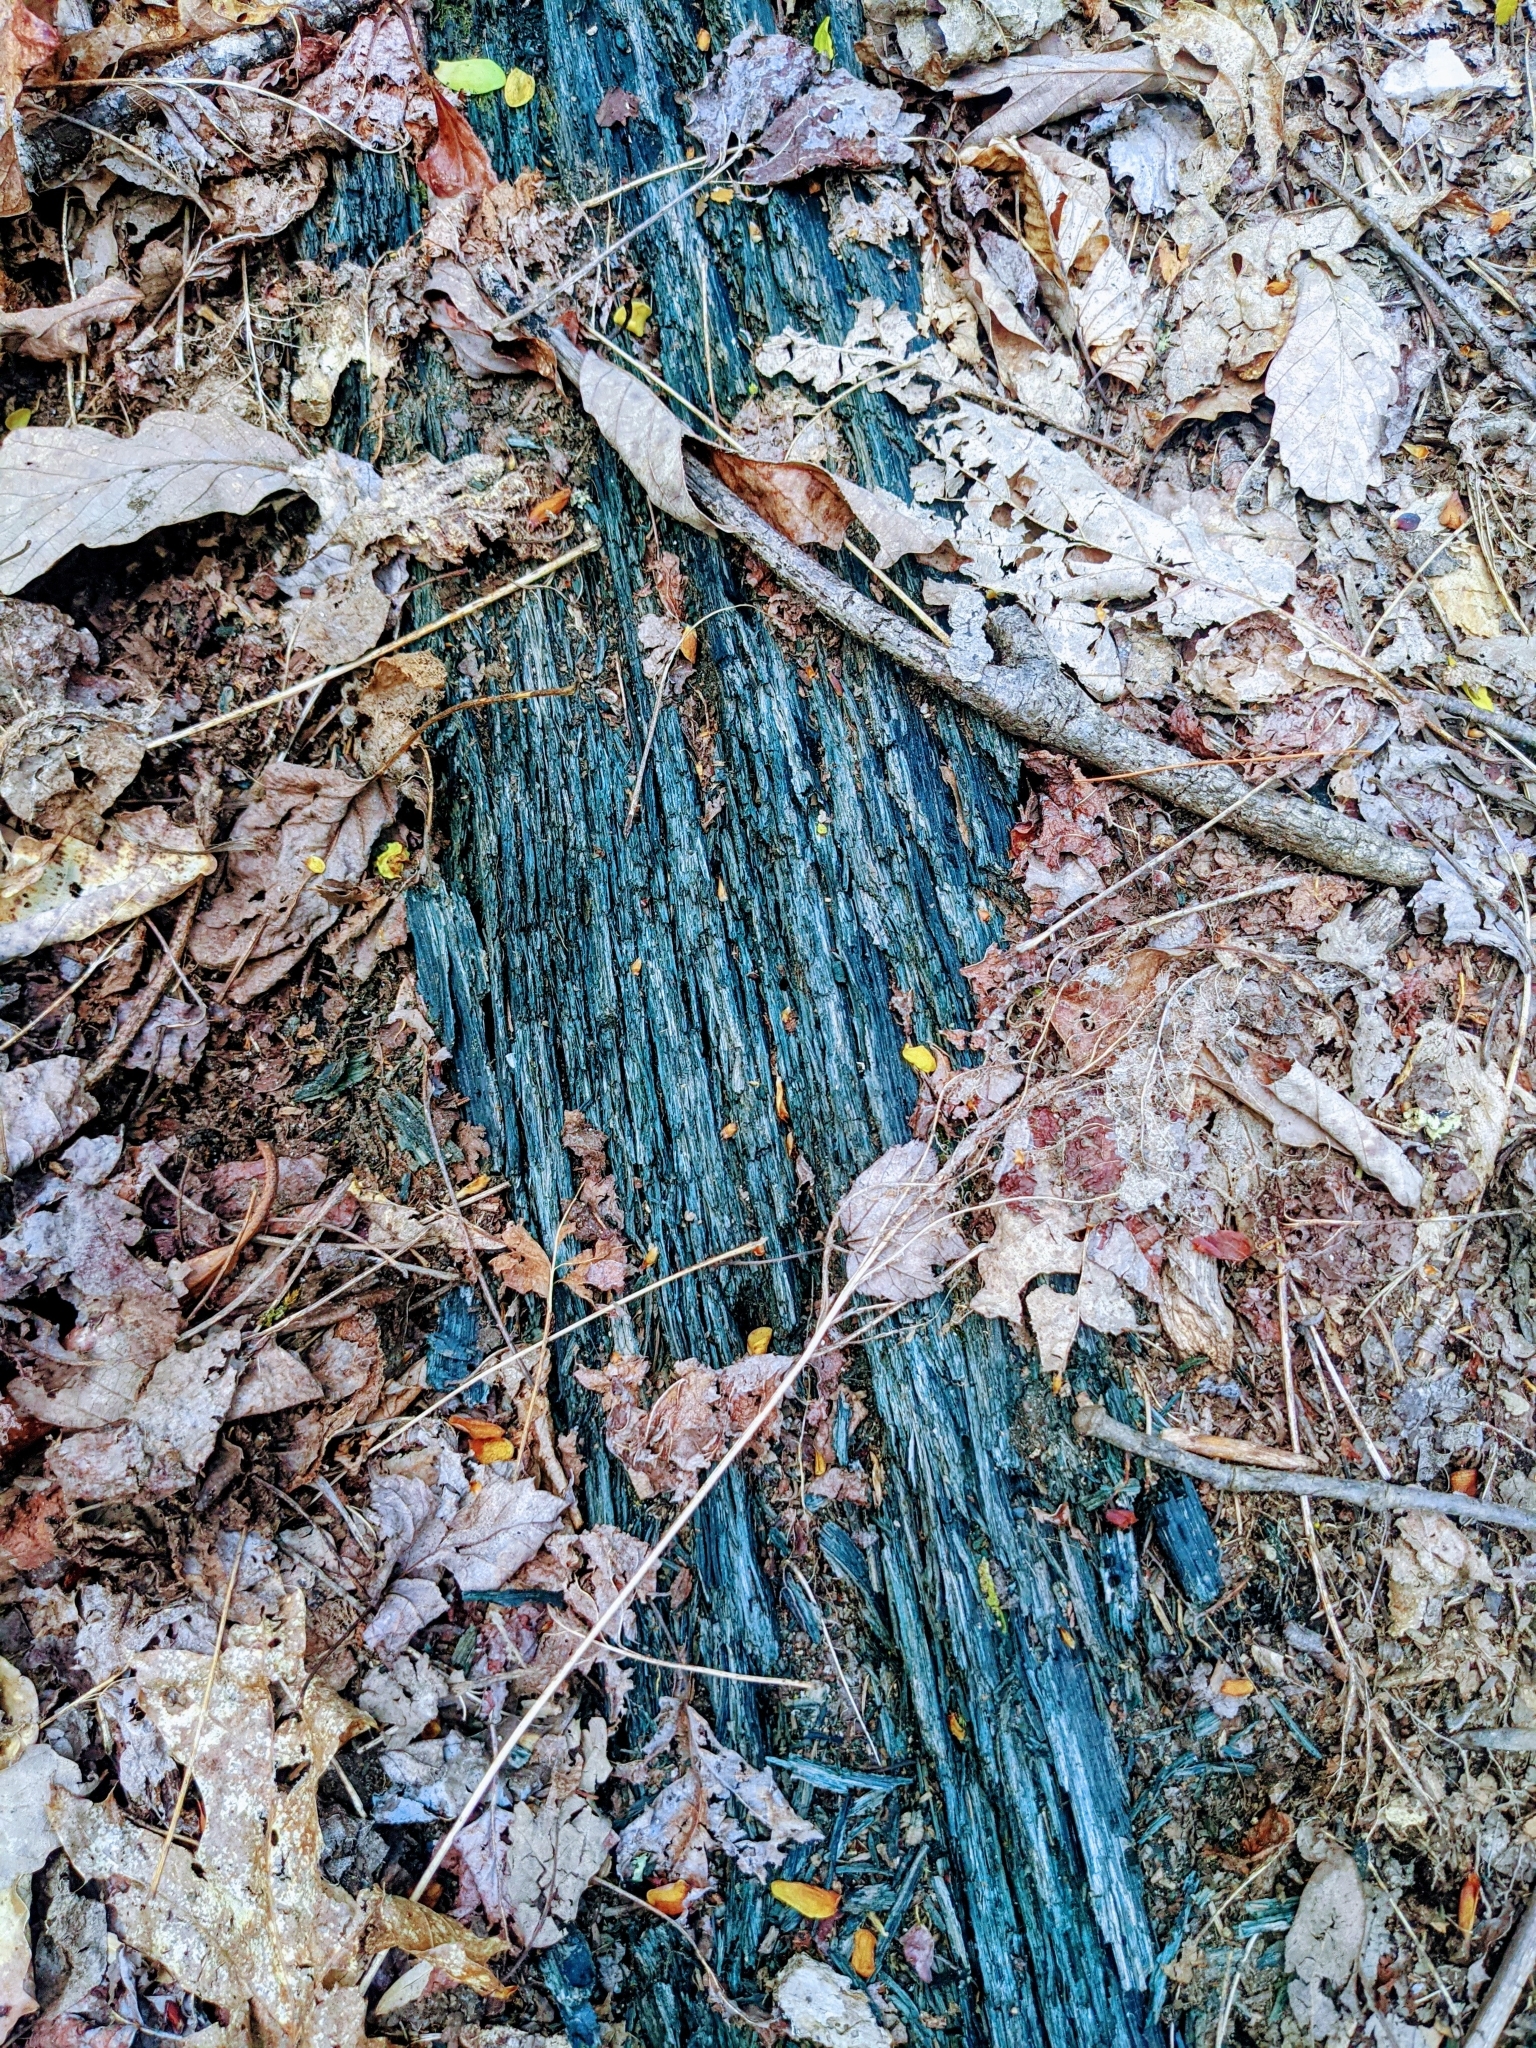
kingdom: Fungi
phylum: Ascomycota
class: Leotiomycetes
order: Helotiales
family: Chlorociboriaceae
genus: Chlorociboria
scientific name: Chlorociboria
